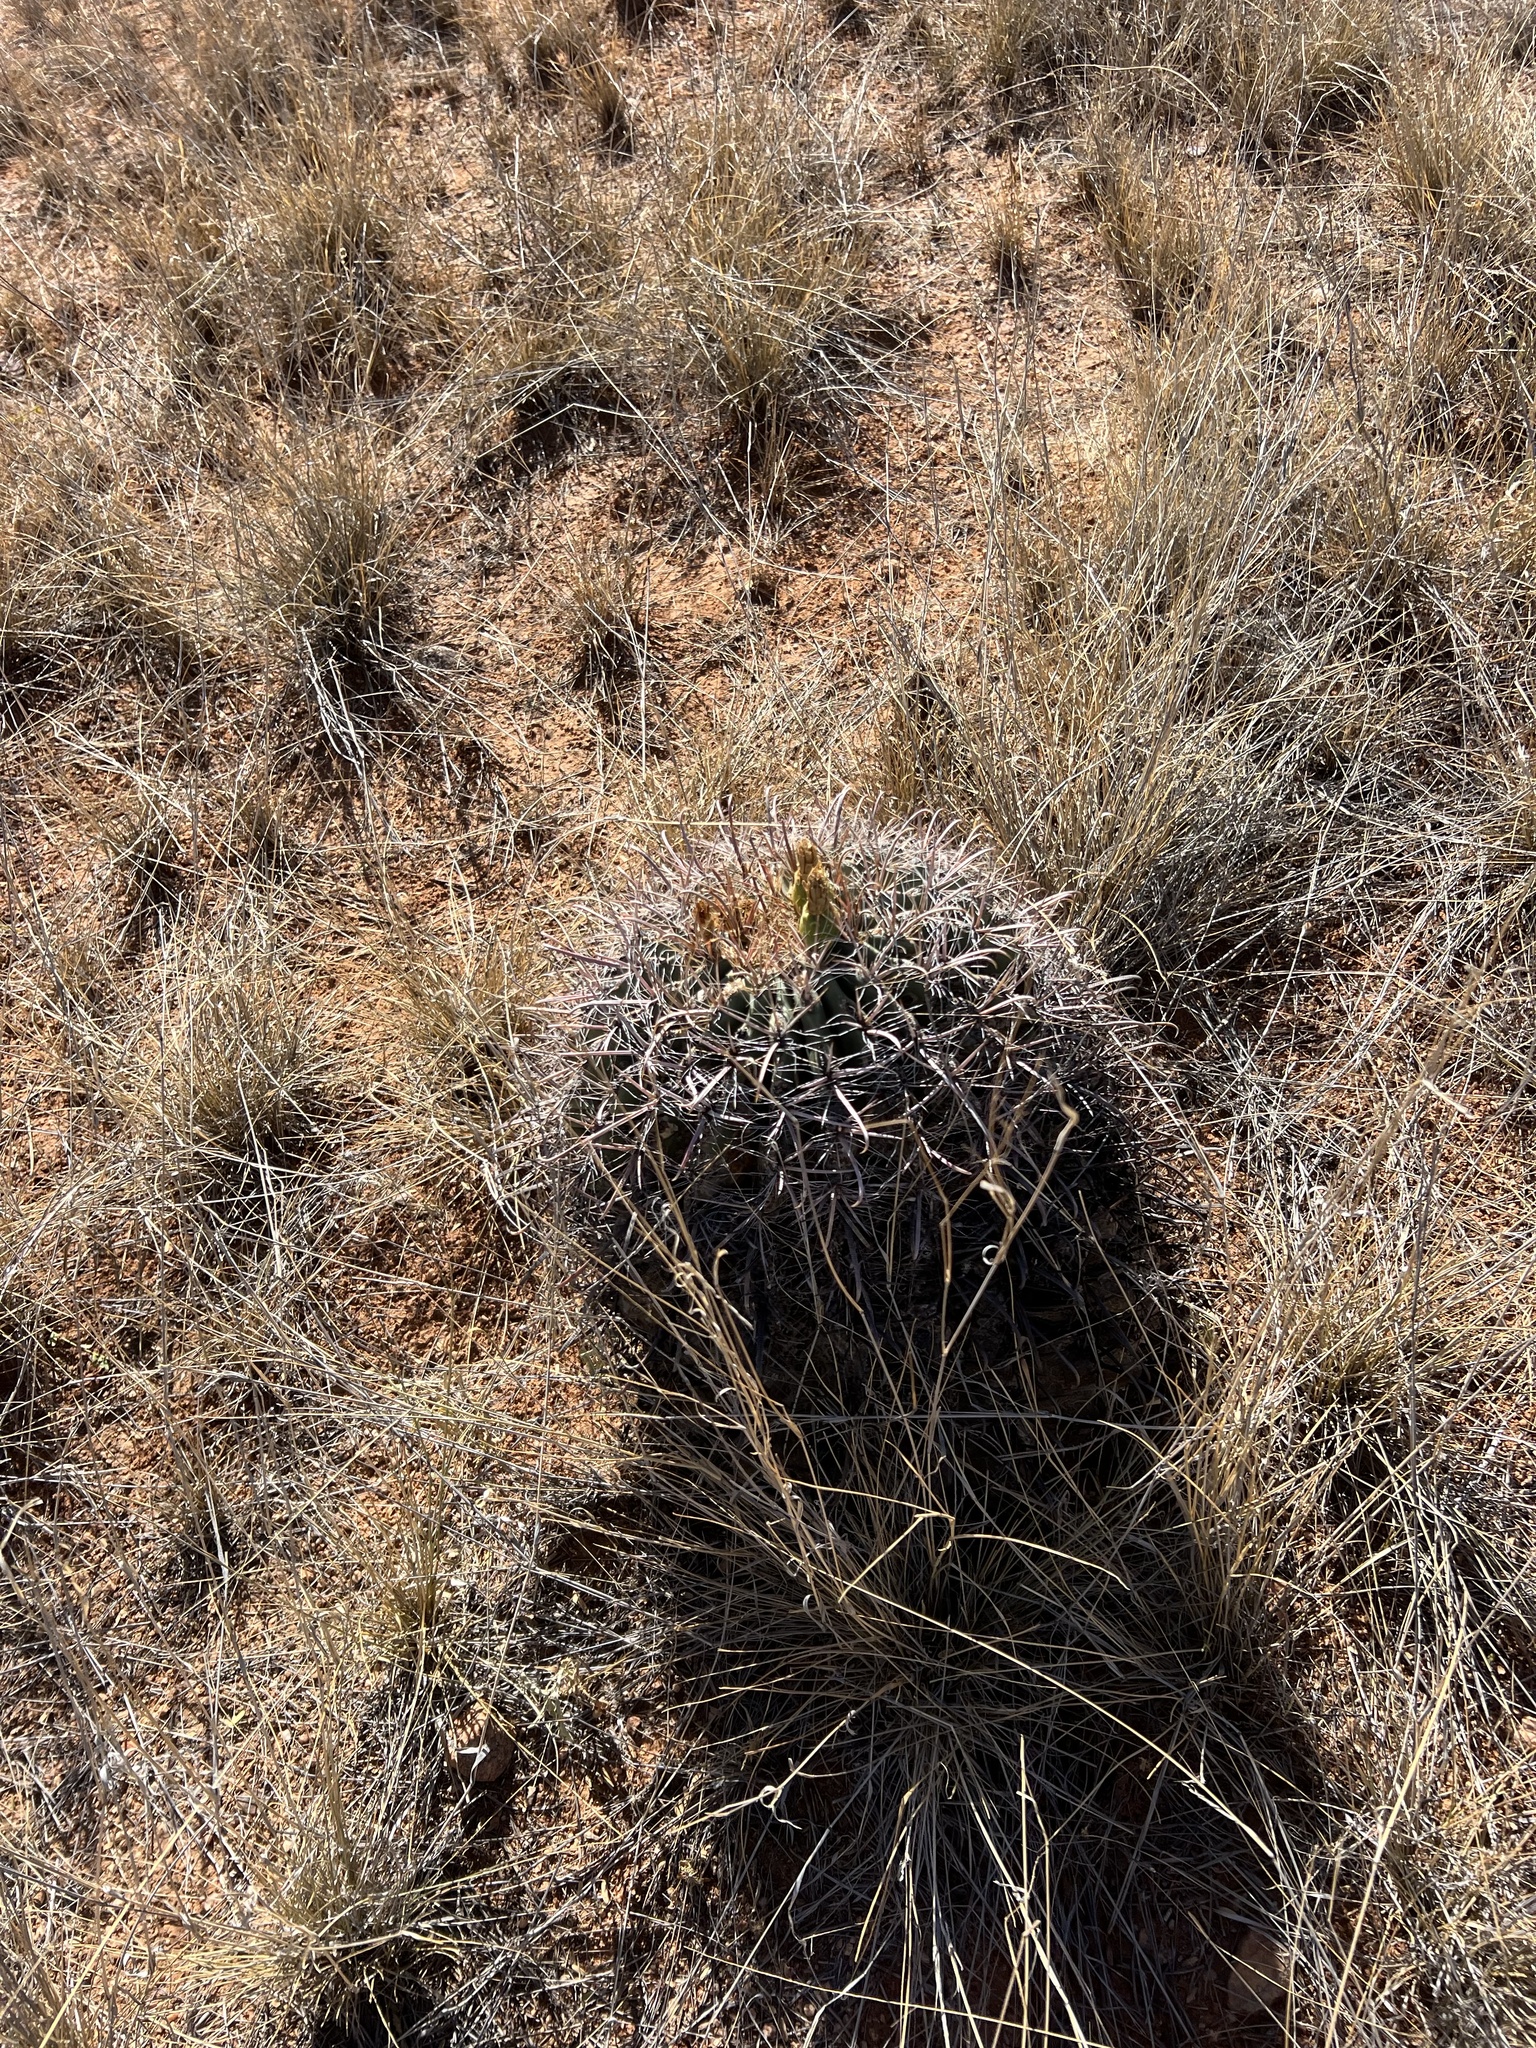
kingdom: Plantae
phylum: Tracheophyta
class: Magnoliopsida
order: Caryophyllales
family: Cactaceae
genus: Ferocactus
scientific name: Ferocactus wislizeni
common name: Candy barrel cactus
